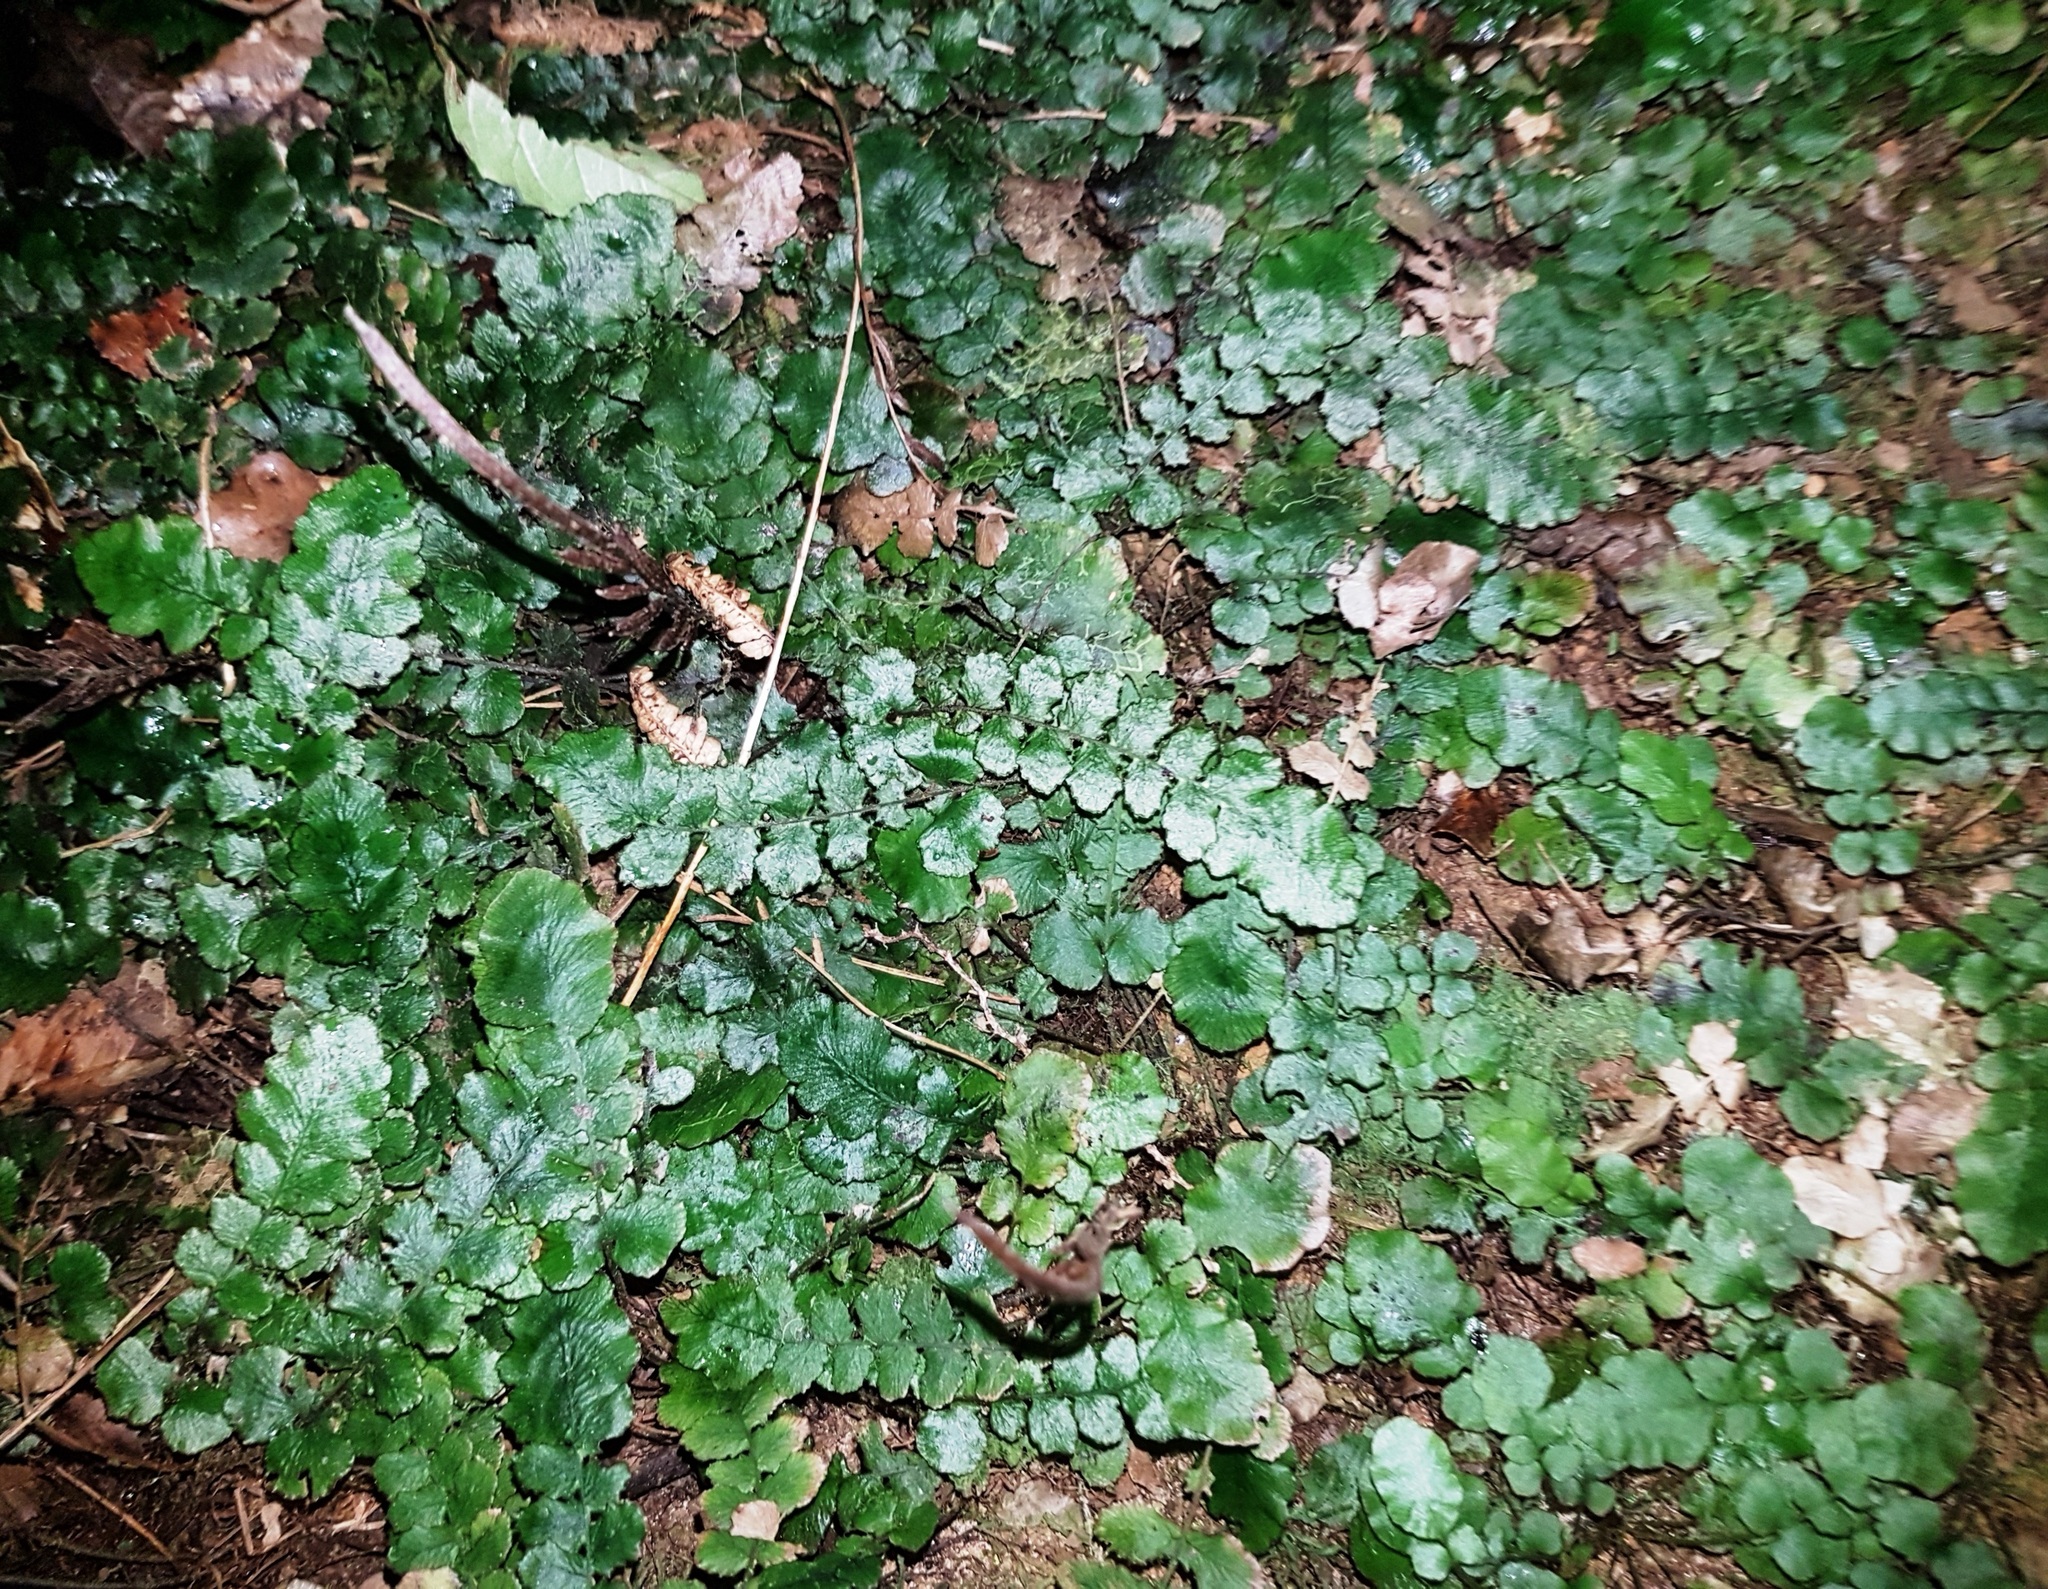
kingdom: Plantae
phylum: Tracheophyta
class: Polypodiopsida
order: Polypodiales
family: Blechnaceae
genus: Cranfillia
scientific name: Cranfillia nigra
